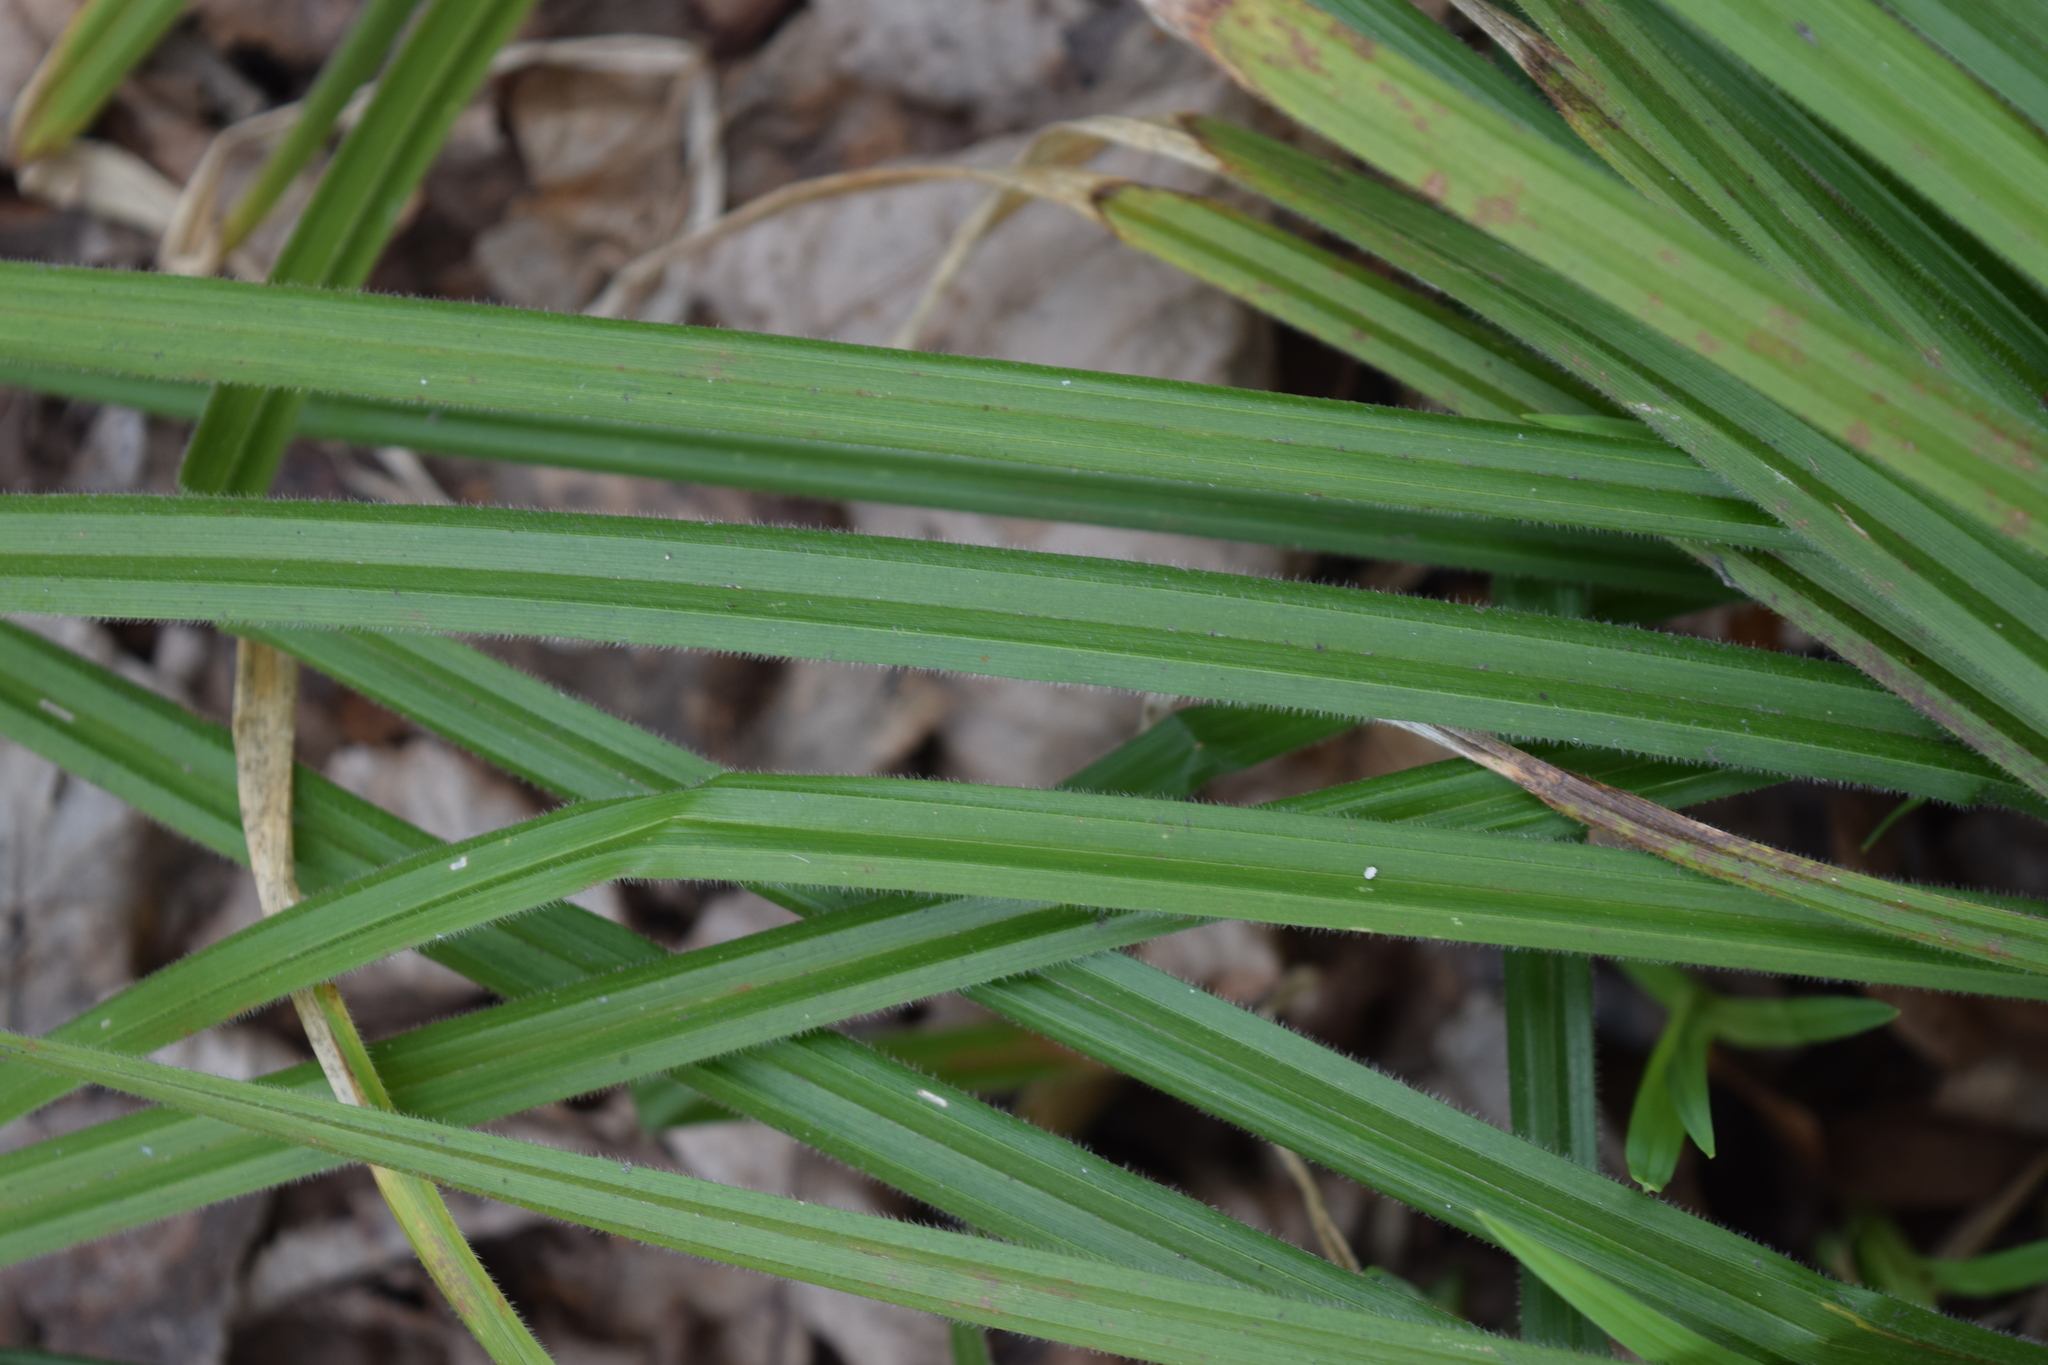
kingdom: Plantae
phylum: Tracheophyta
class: Liliopsida
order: Poales
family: Cyperaceae
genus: Carex
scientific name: Carex pilosa
